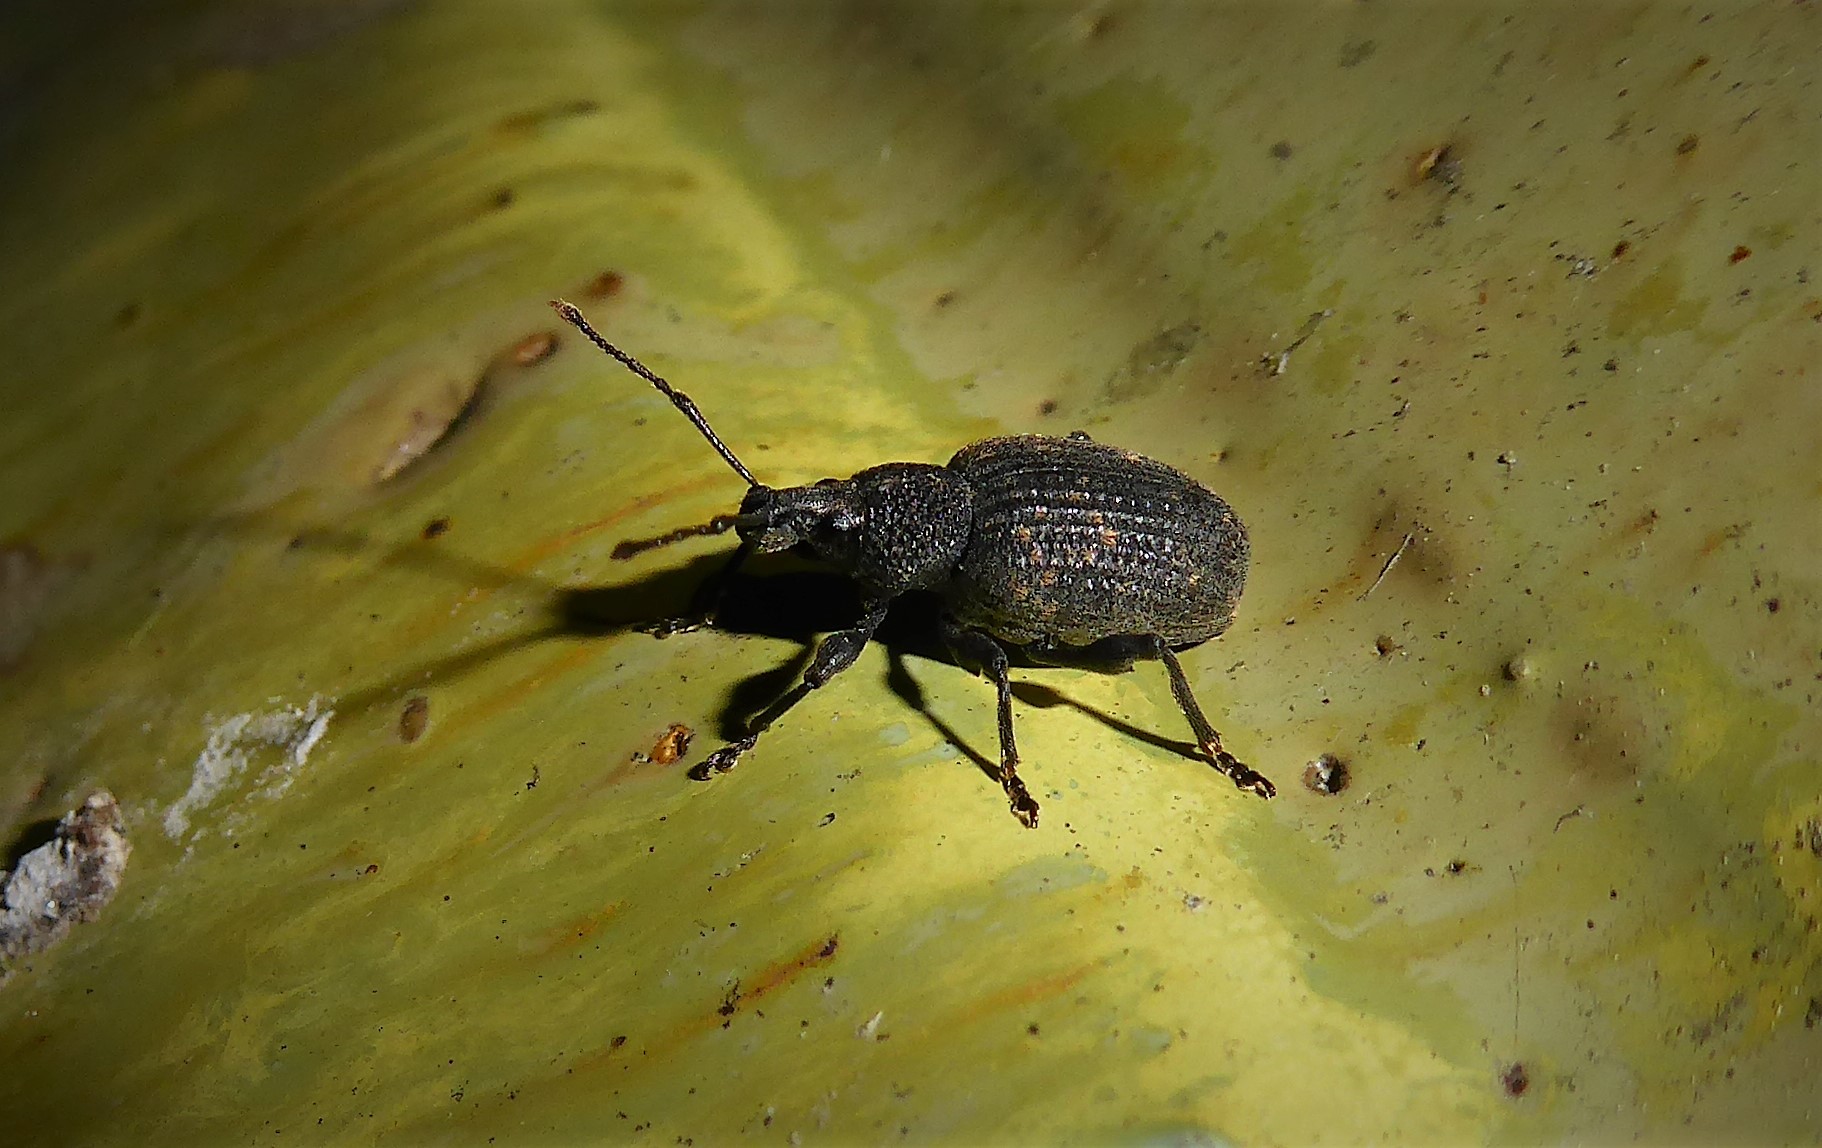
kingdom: Animalia
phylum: Arthropoda
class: Insecta
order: Coleoptera
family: Curculionidae
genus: Otiorhynchus
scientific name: Otiorhynchus sulcatus
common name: Black vine weevil
